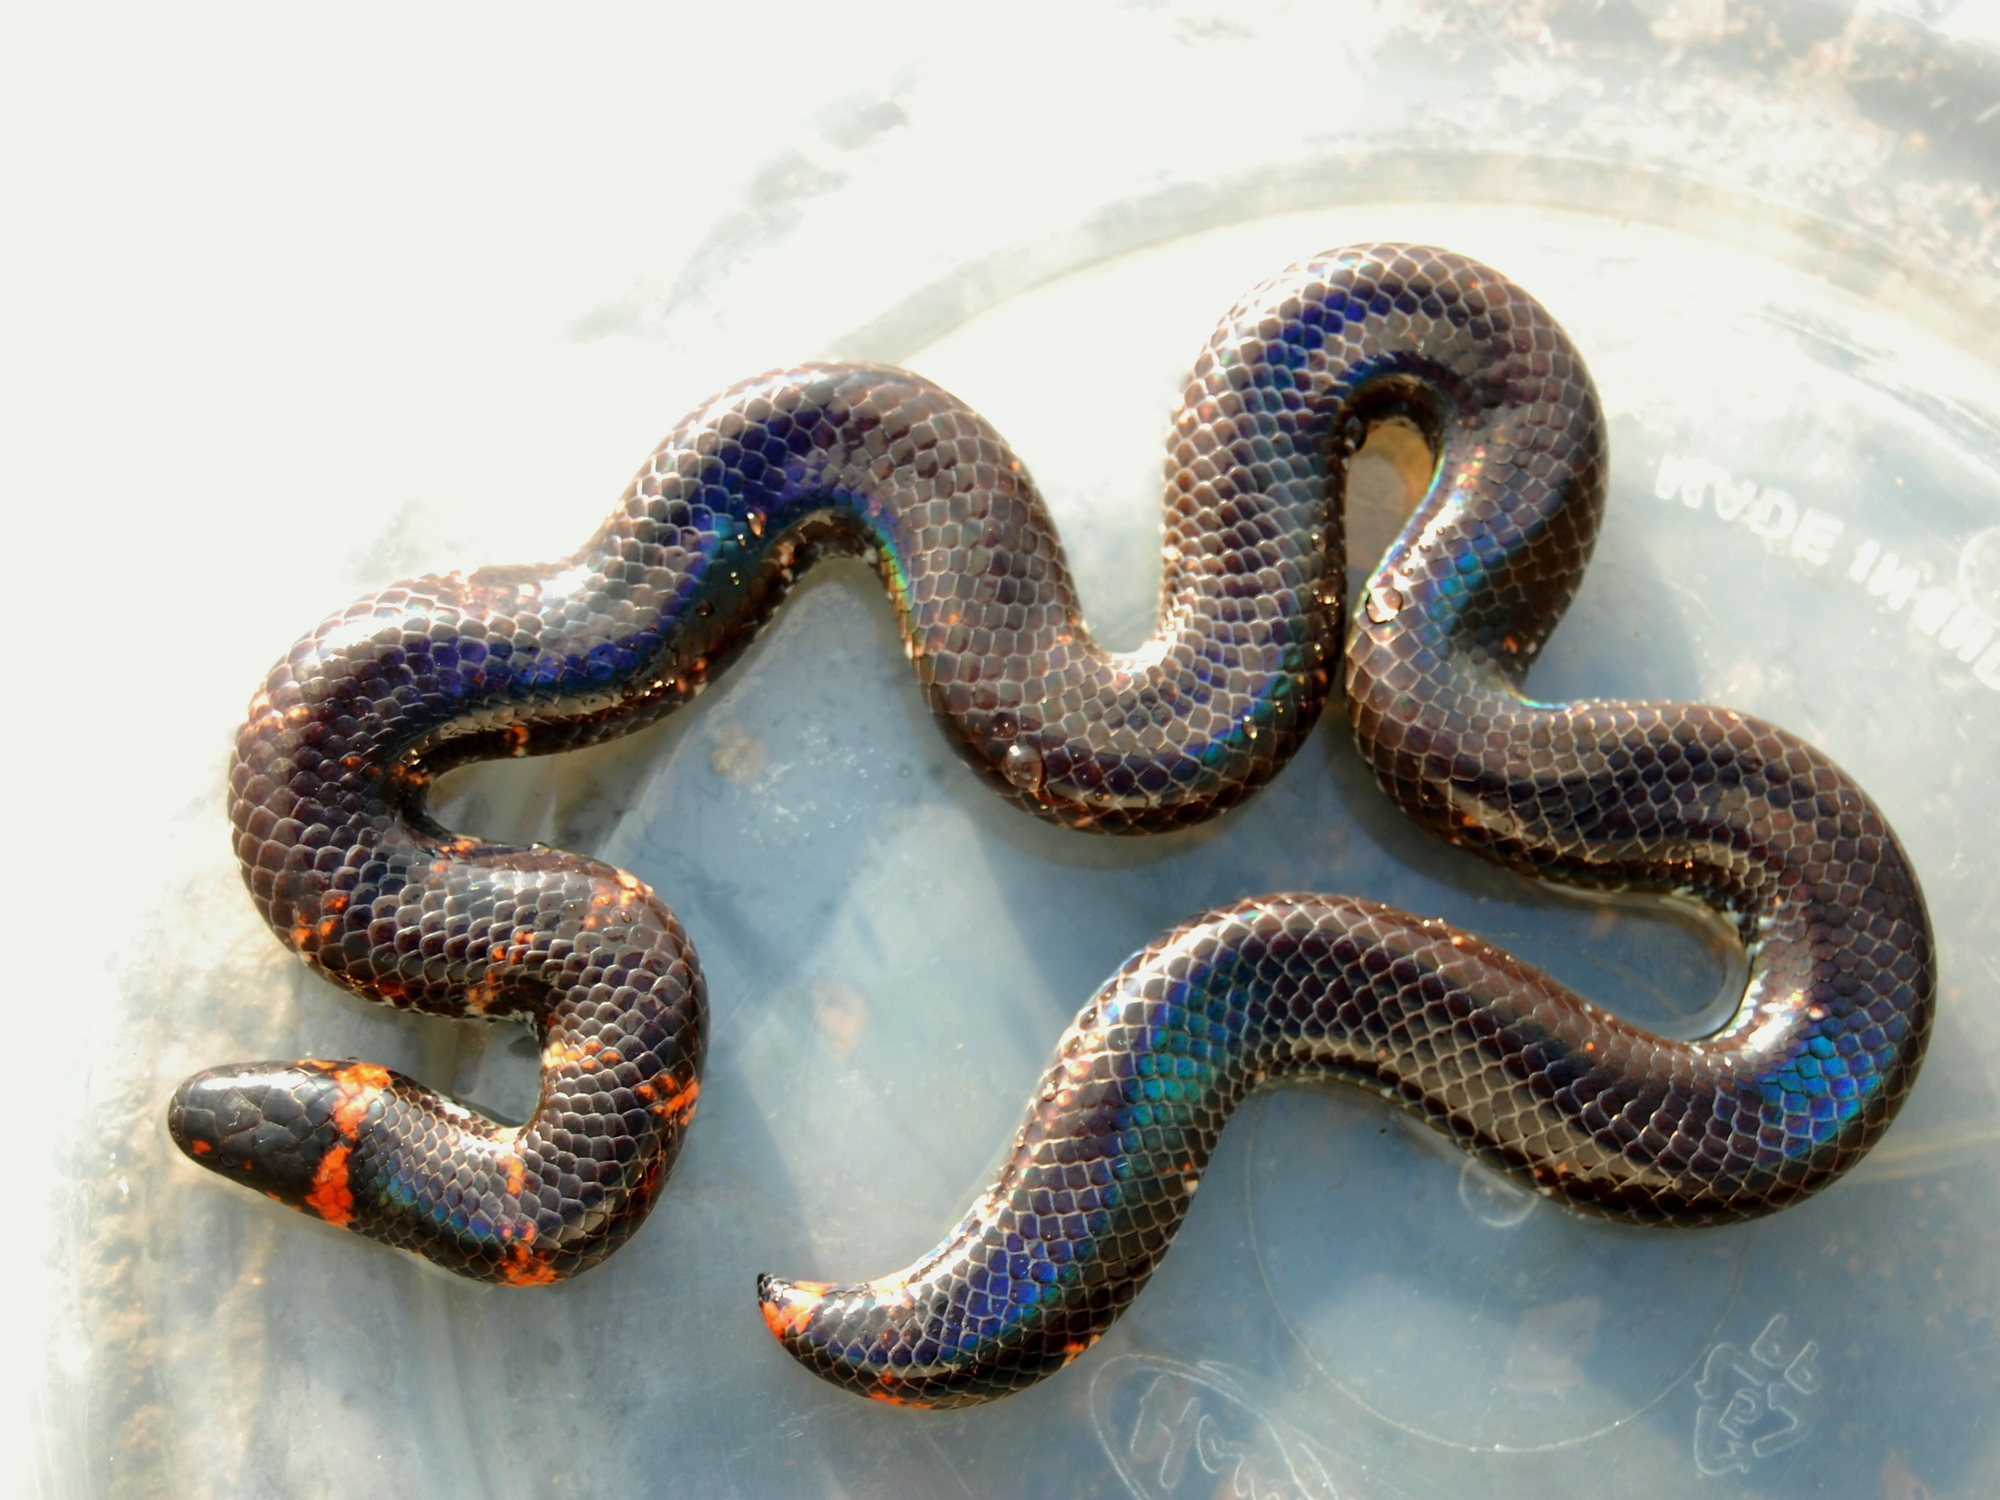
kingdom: Animalia
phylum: Chordata
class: Squamata
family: Cylindrophiidae
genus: Cylindrophis
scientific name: Cylindrophis ruffus
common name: Red-tailed pipe snake
